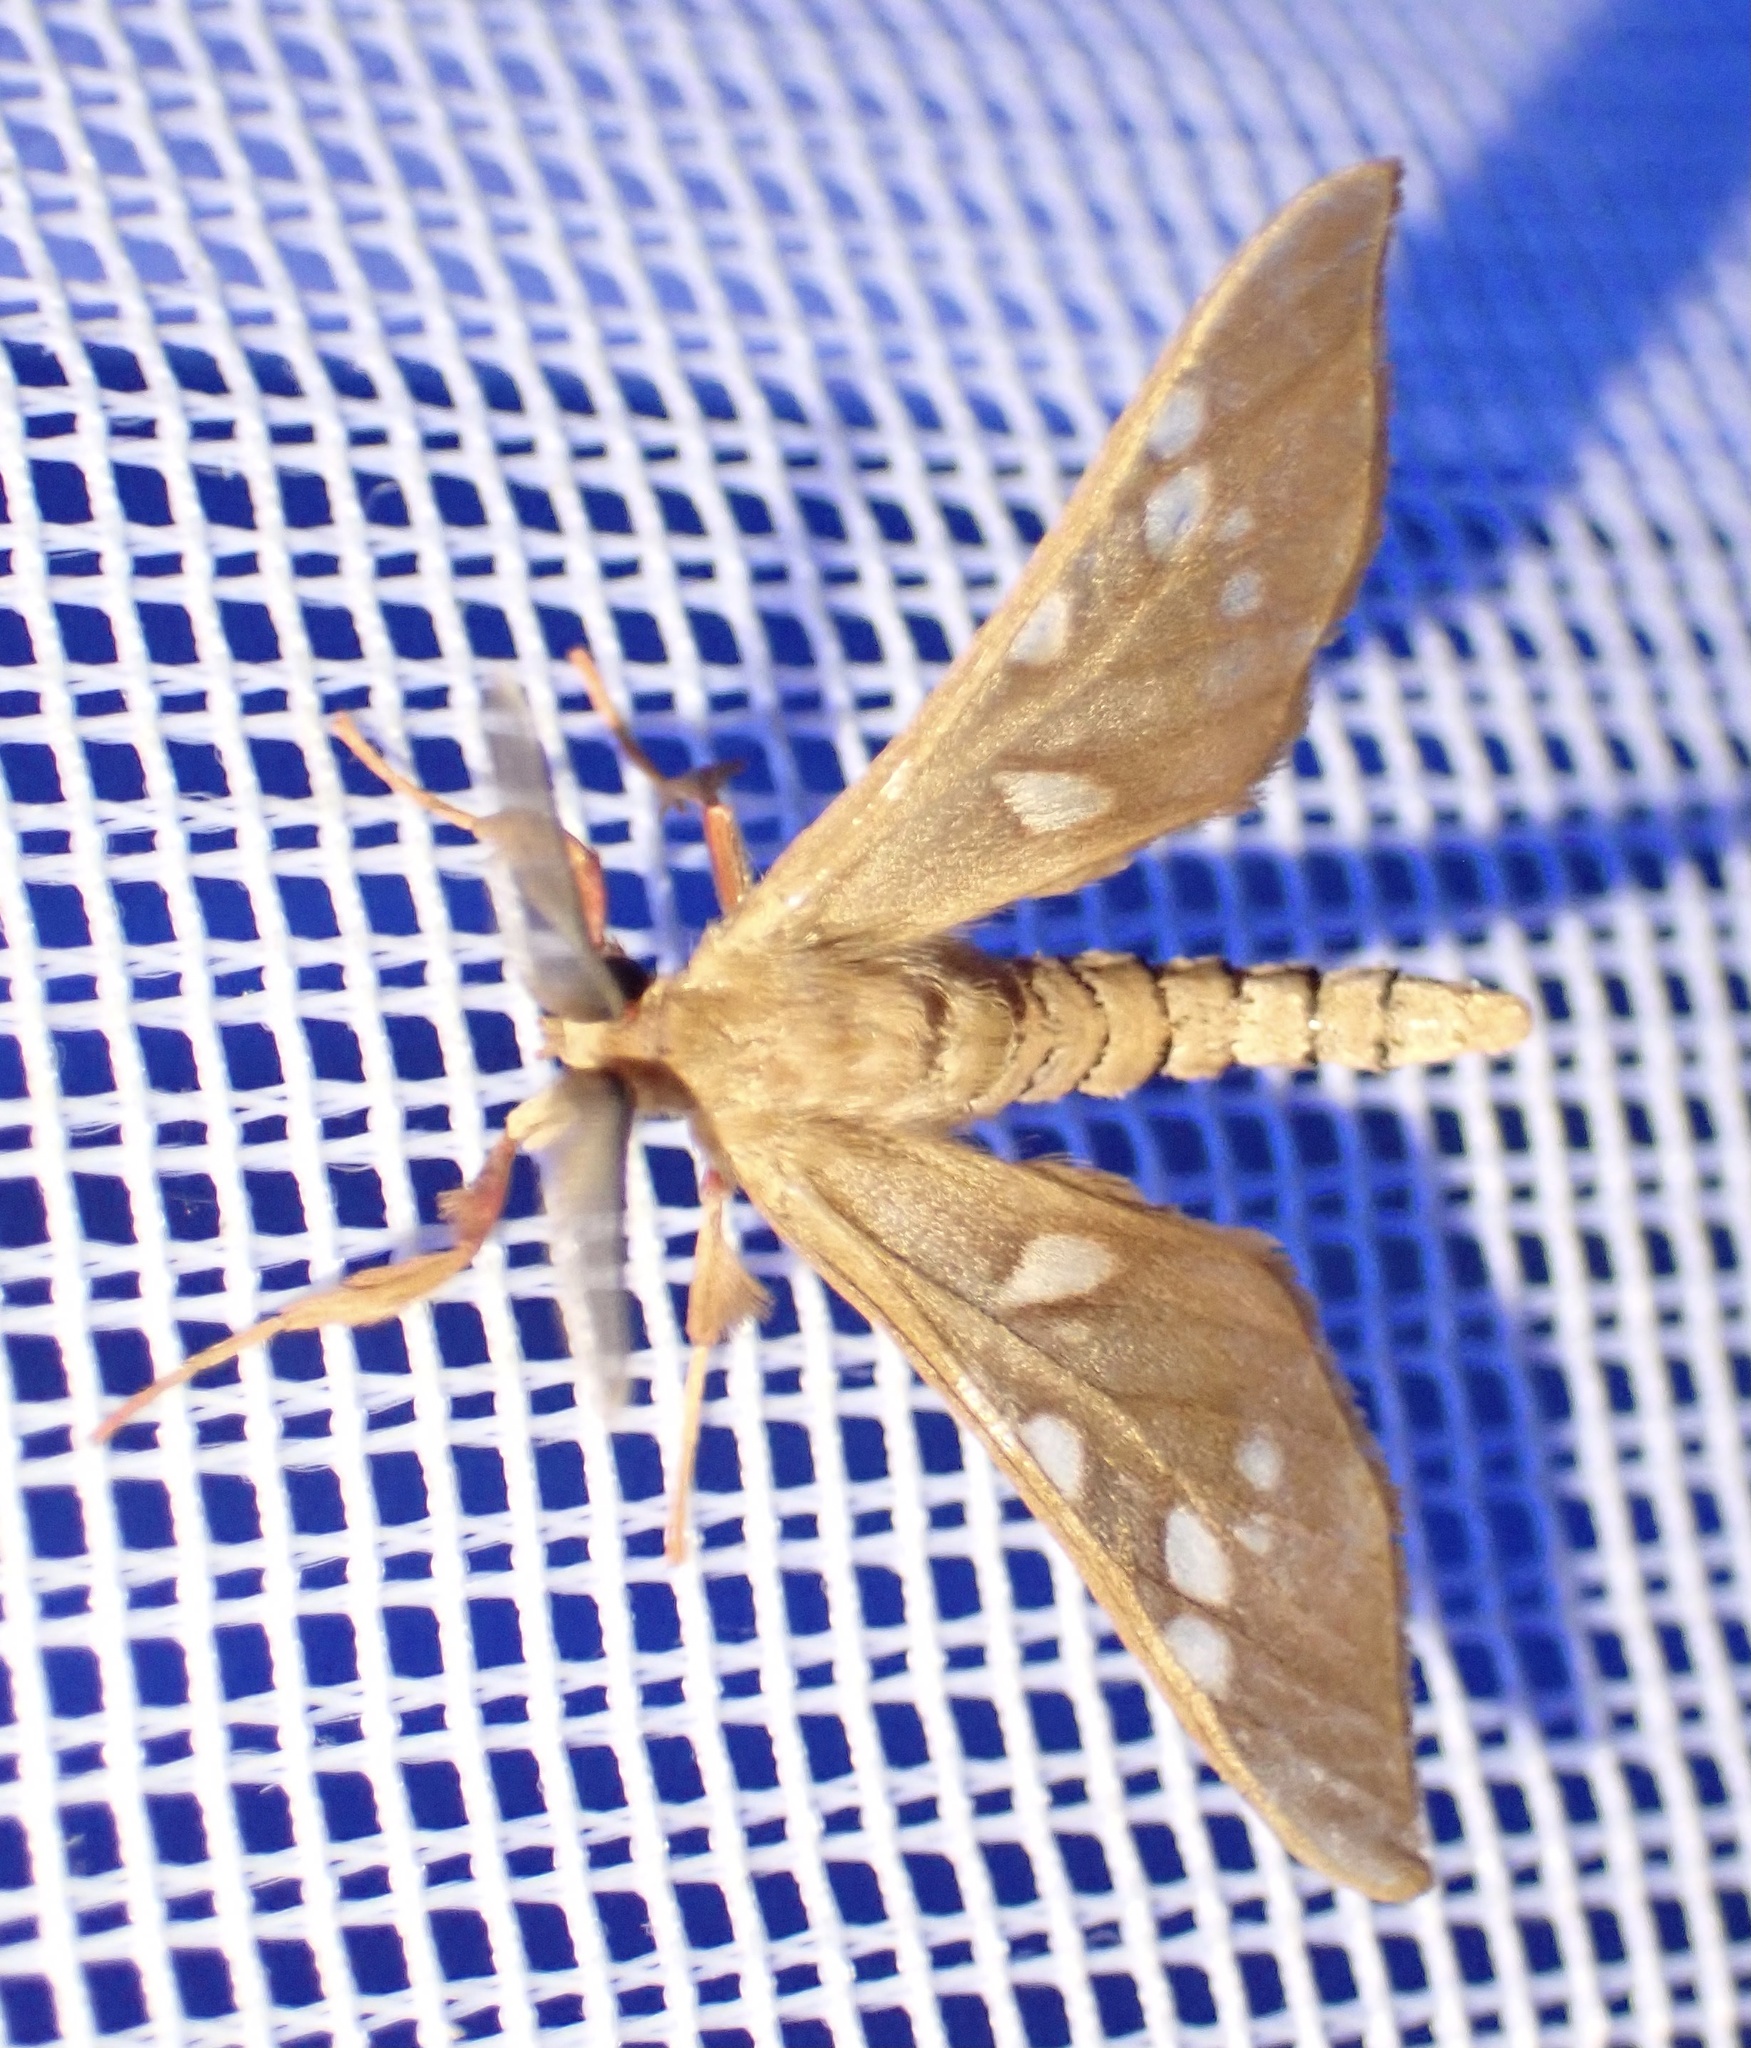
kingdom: Animalia
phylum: Arthropoda
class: Insecta
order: Lepidoptera
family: Erebidae
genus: Pseudothyretes
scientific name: Pseudothyretes perpusilla
